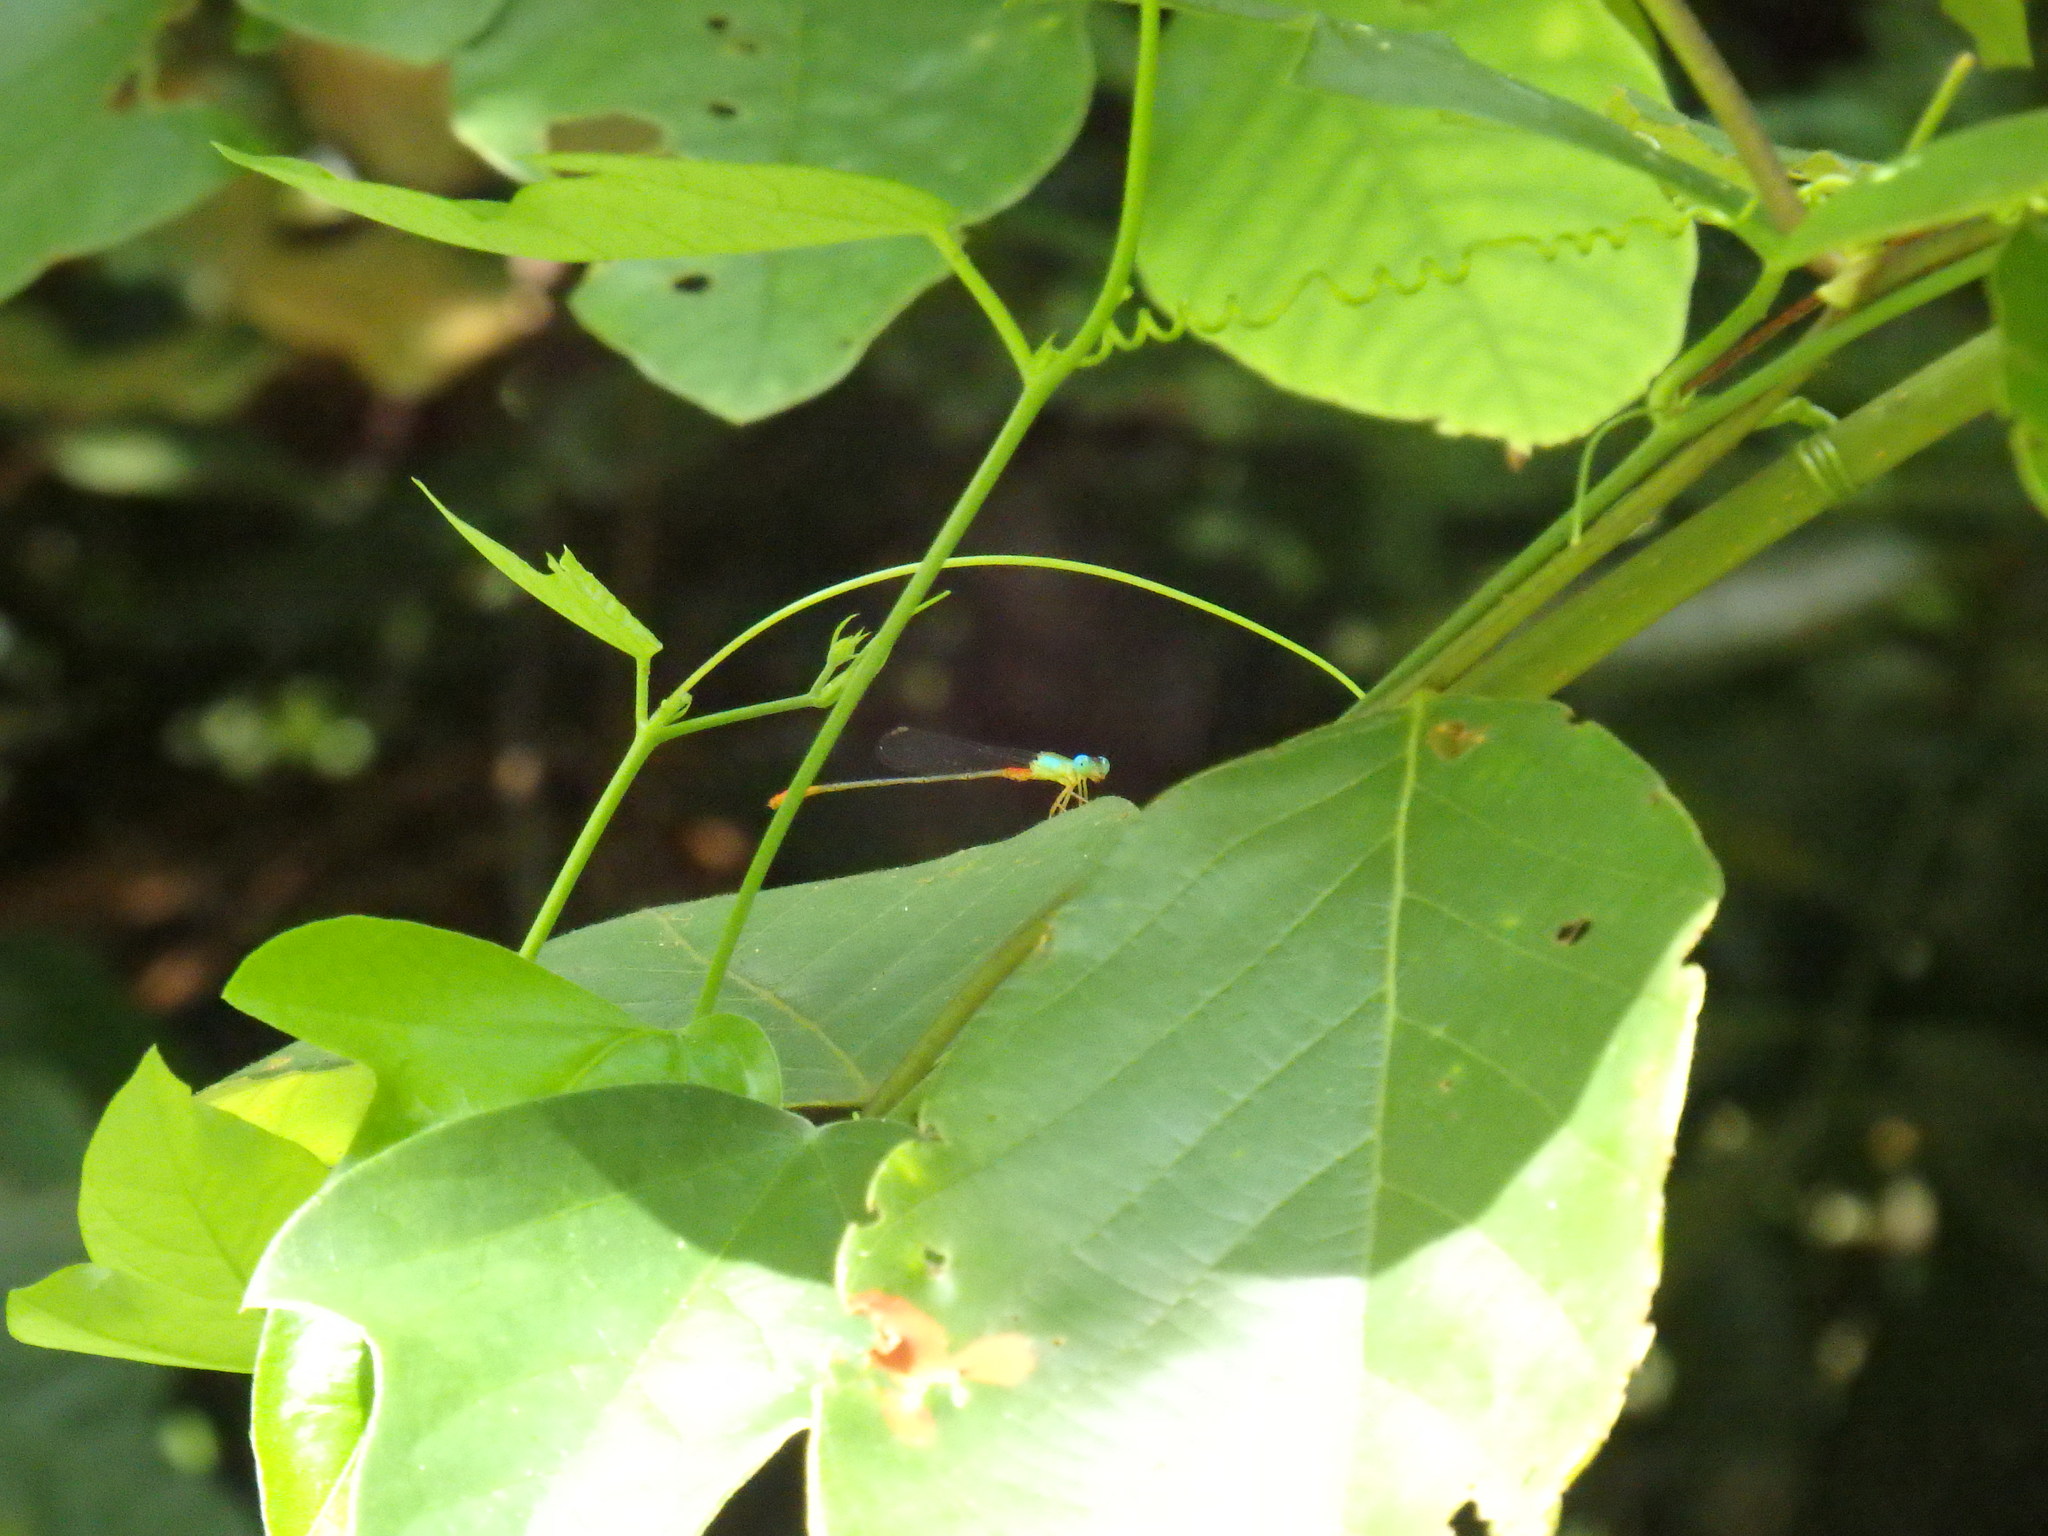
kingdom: Animalia
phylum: Arthropoda
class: Insecta
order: Odonata
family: Coenagrionidae
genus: Ceriagrion
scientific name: Ceriagrion cerinorubellum
